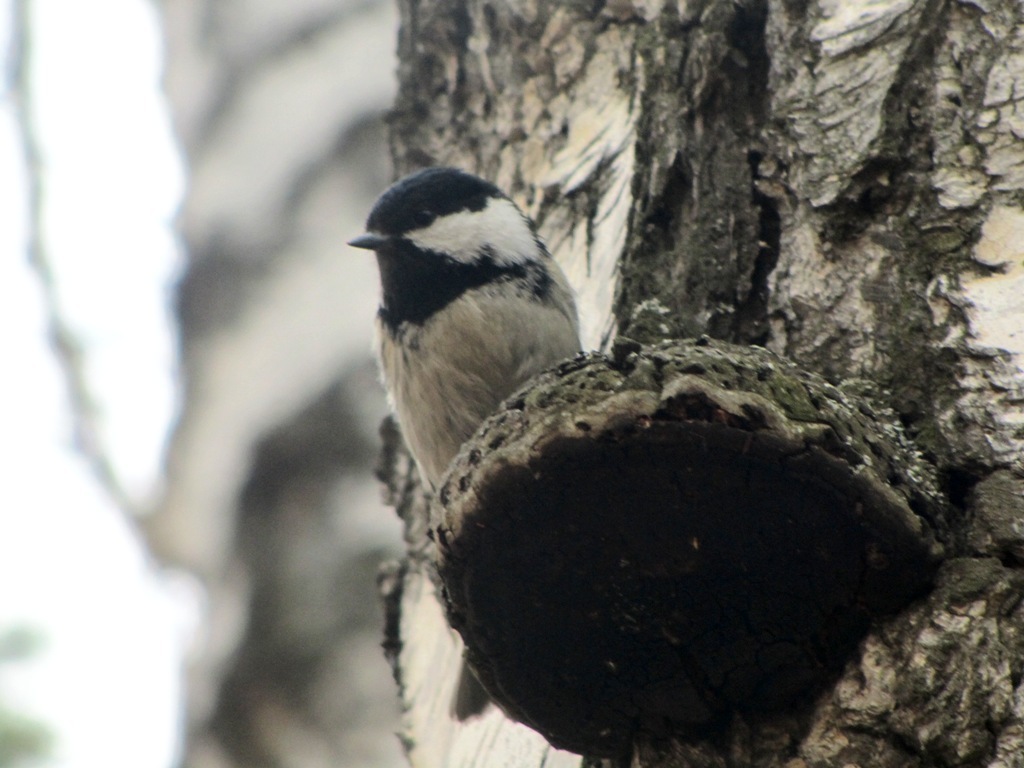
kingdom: Animalia
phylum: Chordata
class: Aves
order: Passeriformes
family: Paridae
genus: Periparus
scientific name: Periparus ater
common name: Coal tit
